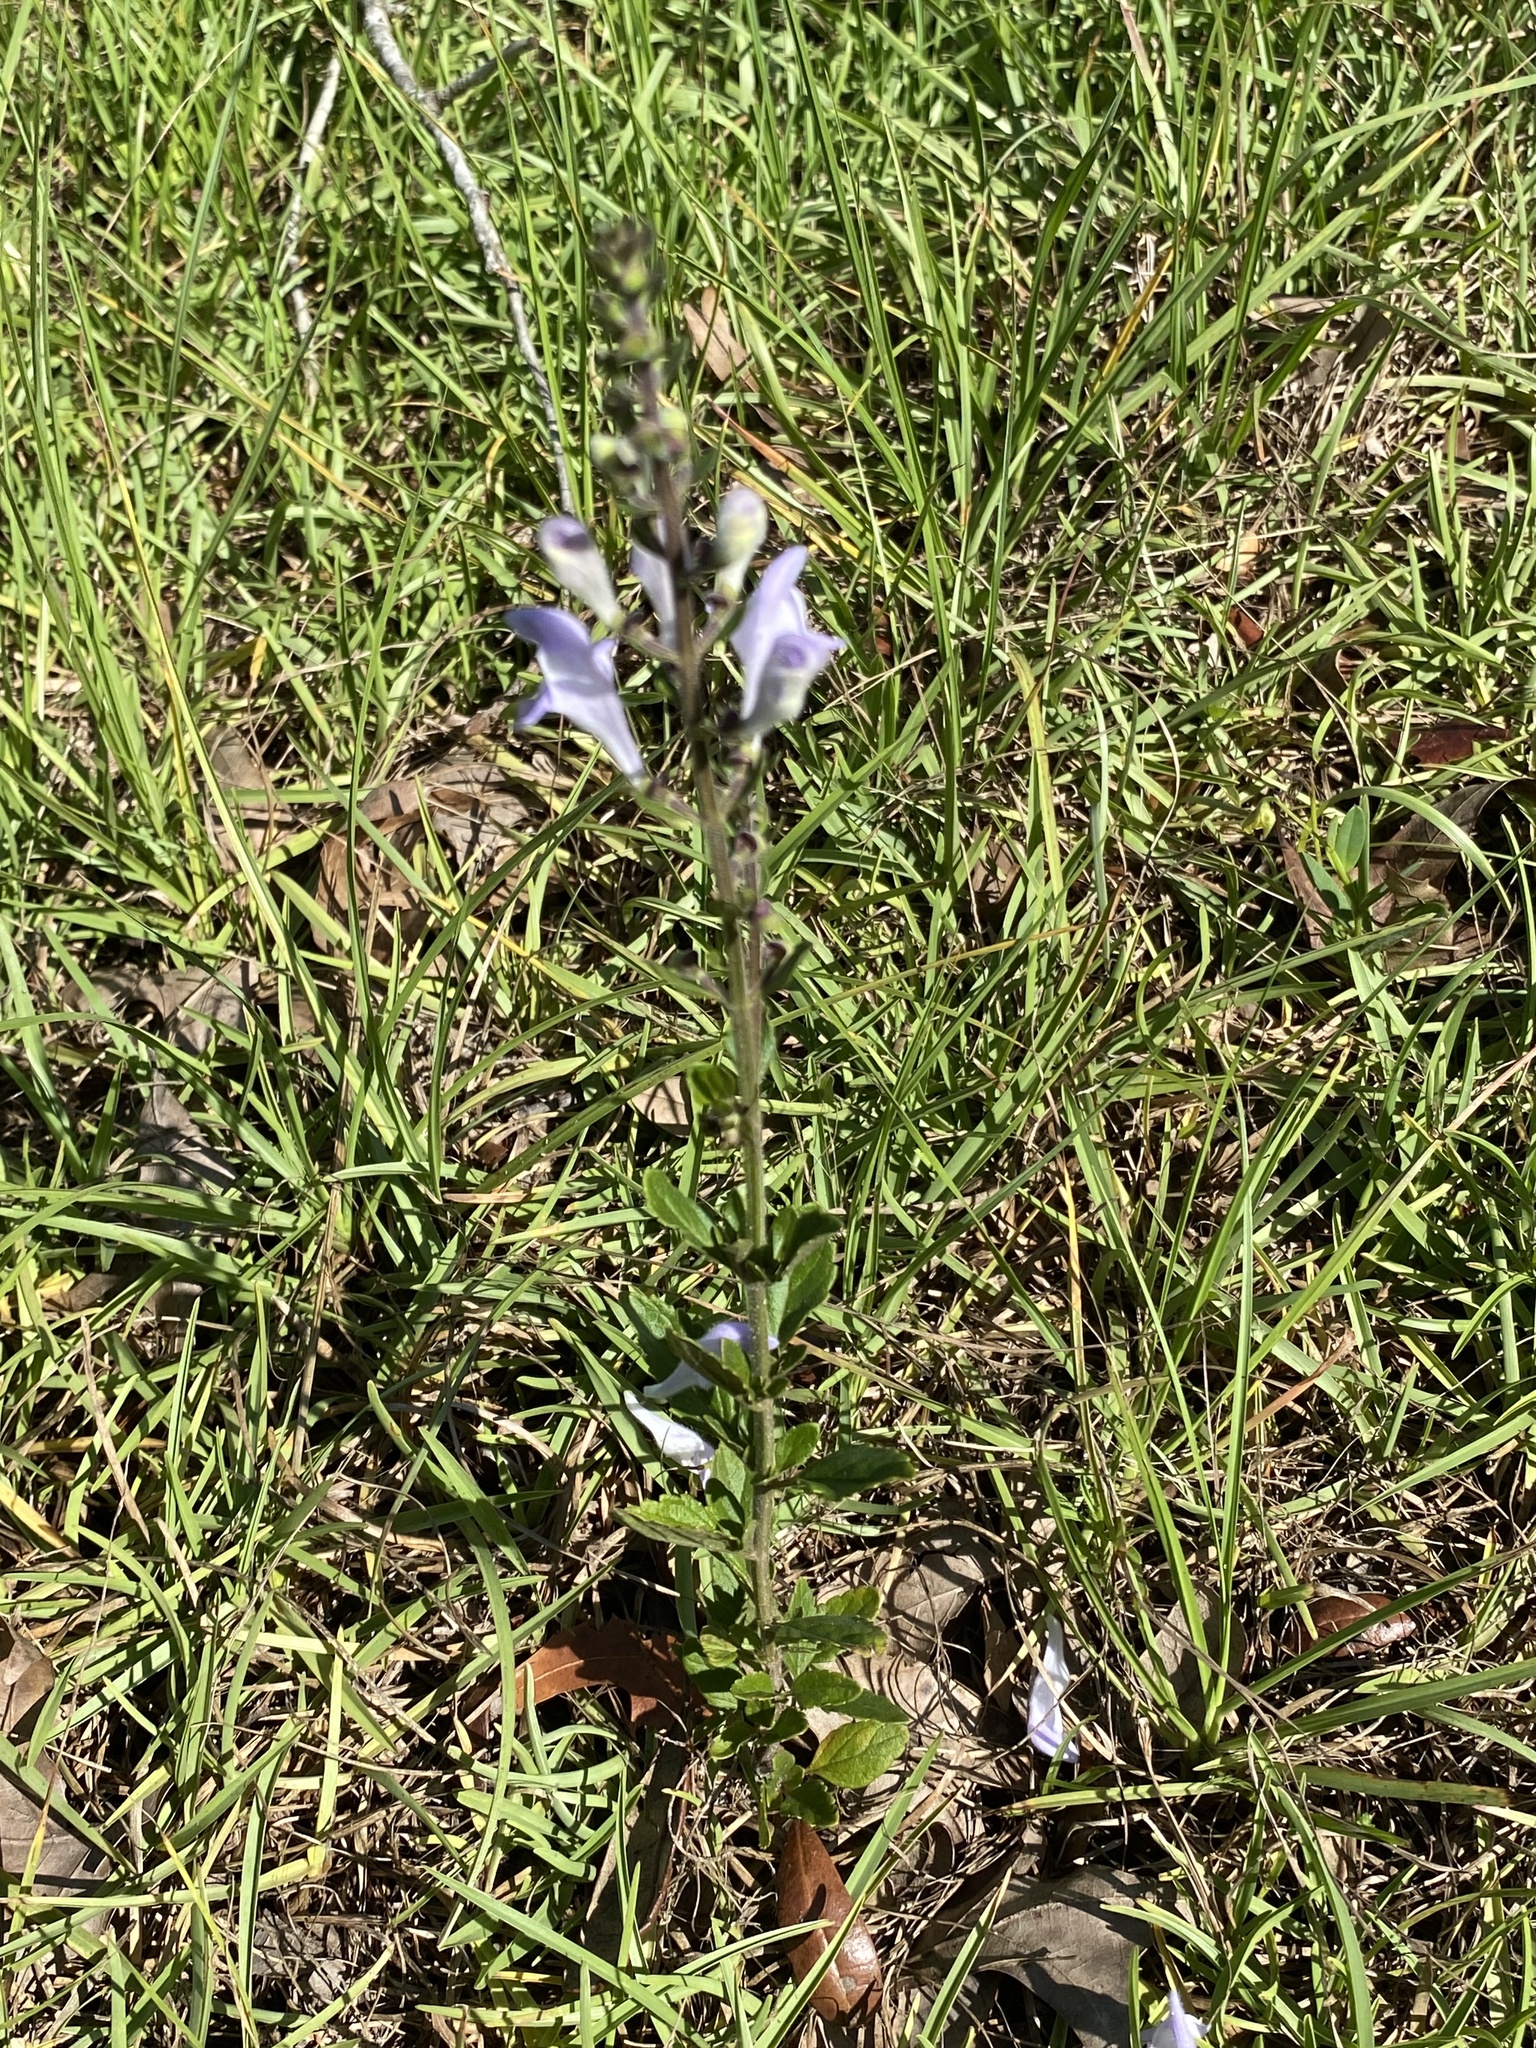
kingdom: Plantae
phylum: Tracheophyta
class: Magnoliopsida
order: Lamiales
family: Lamiaceae
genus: Scutellaria
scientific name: Scutellaria arenicola
